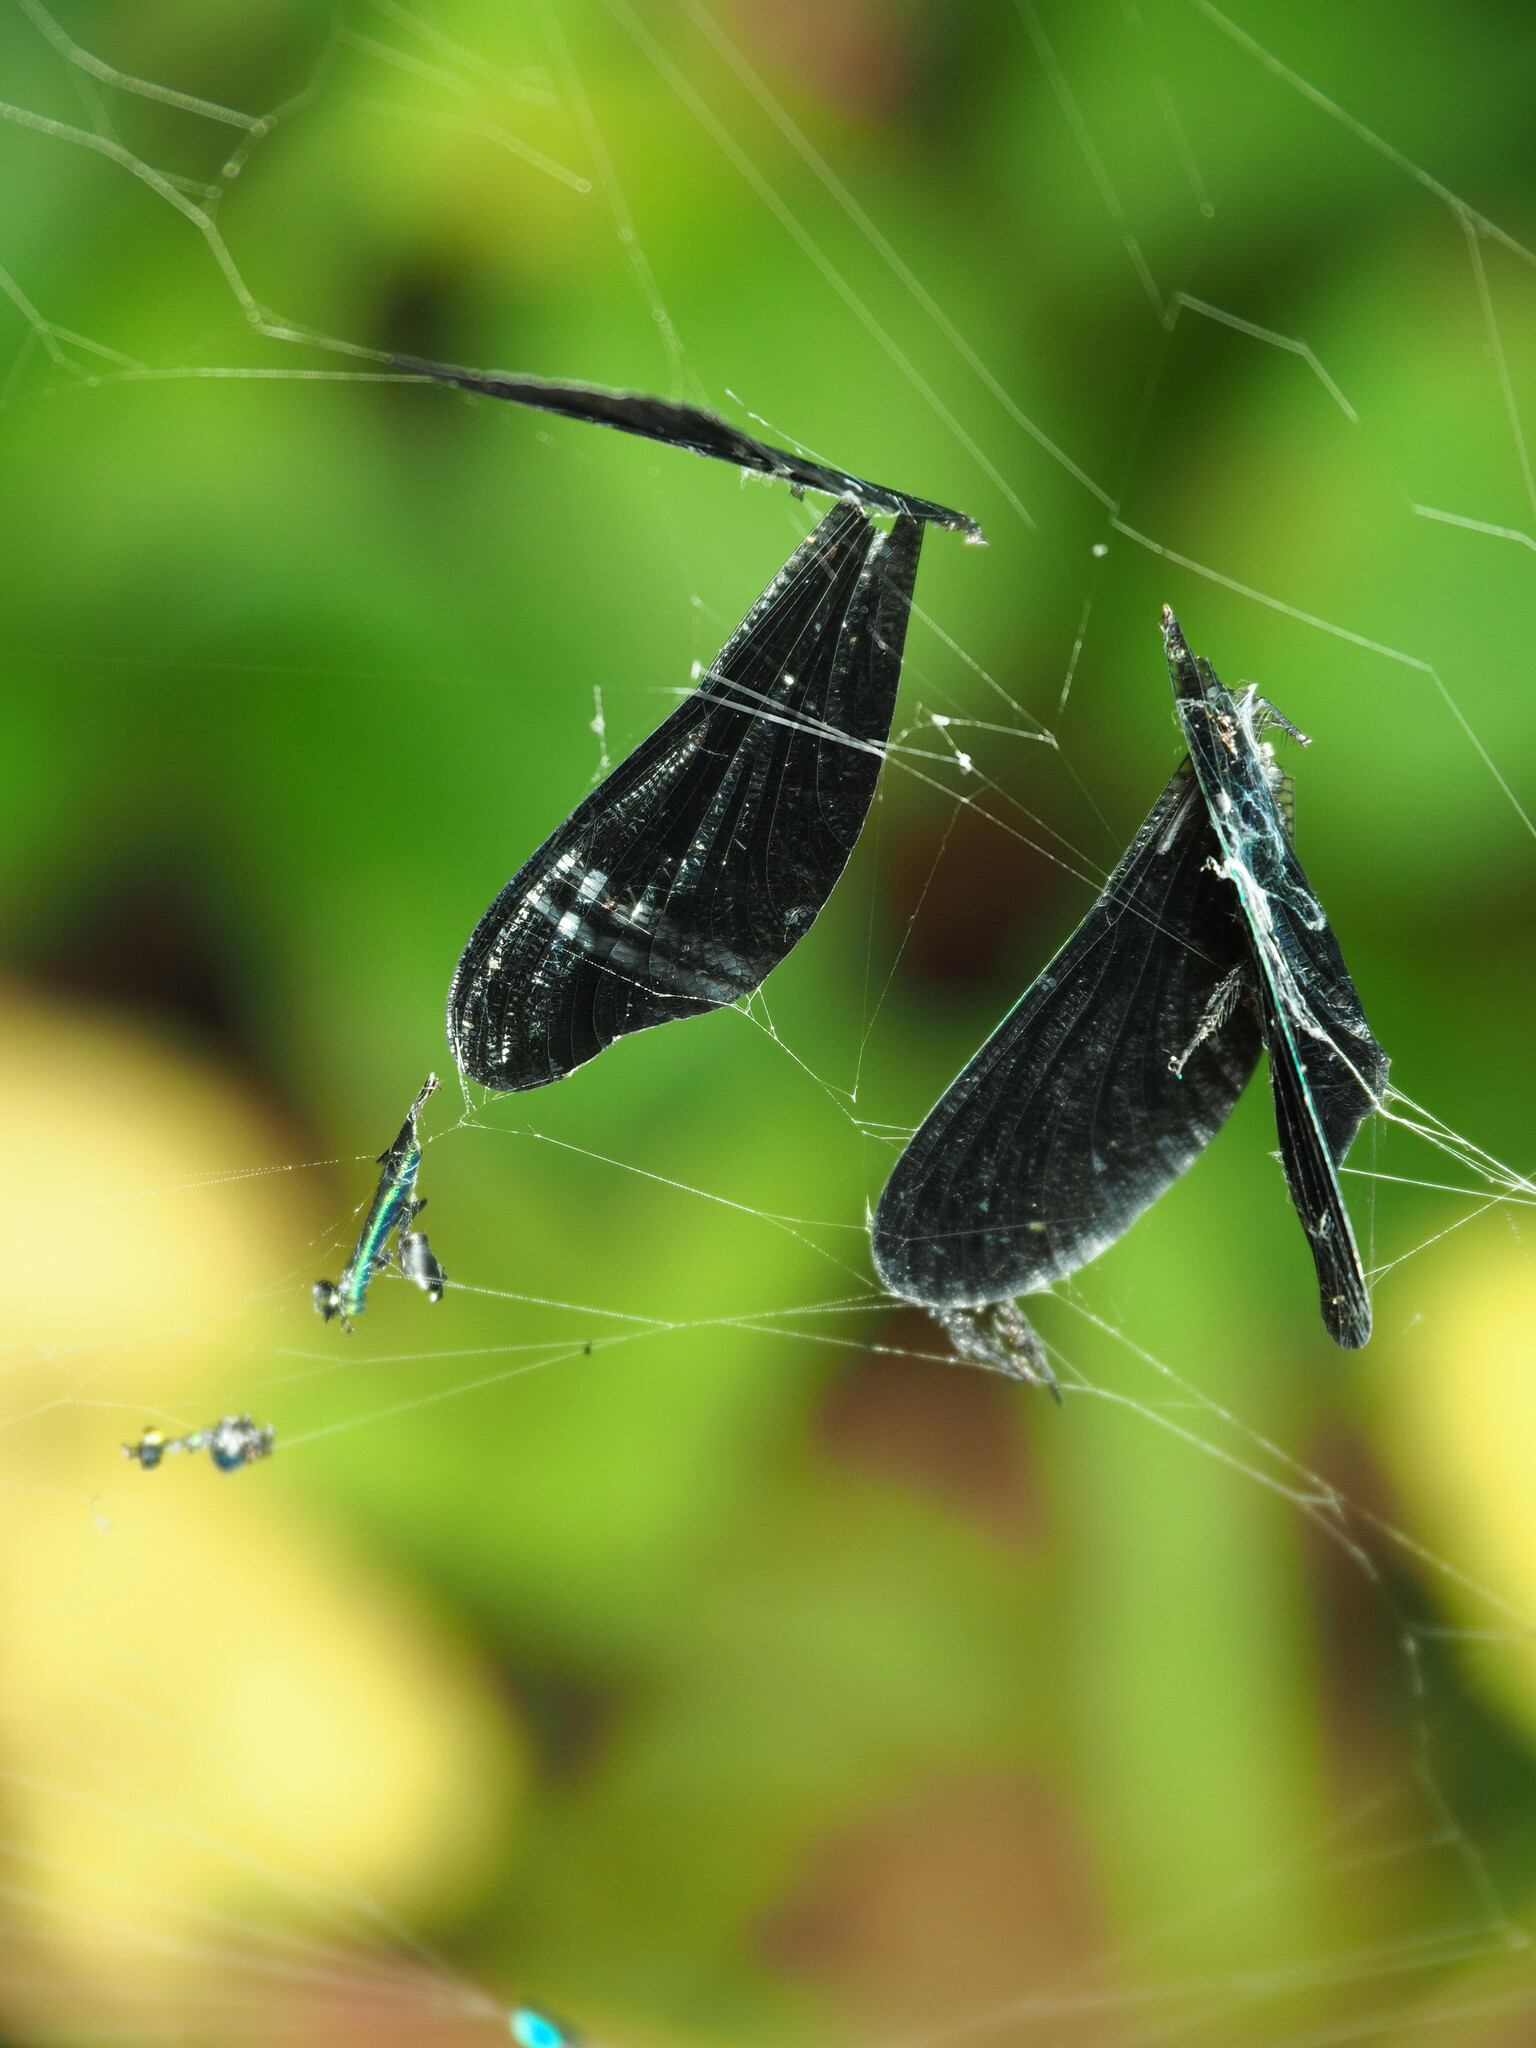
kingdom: Animalia
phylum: Arthropoda
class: Insecta
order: Odonata
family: Calopterygidae
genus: Calopteryx
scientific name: Calopteryx maculata
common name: Ebony jewelwing
